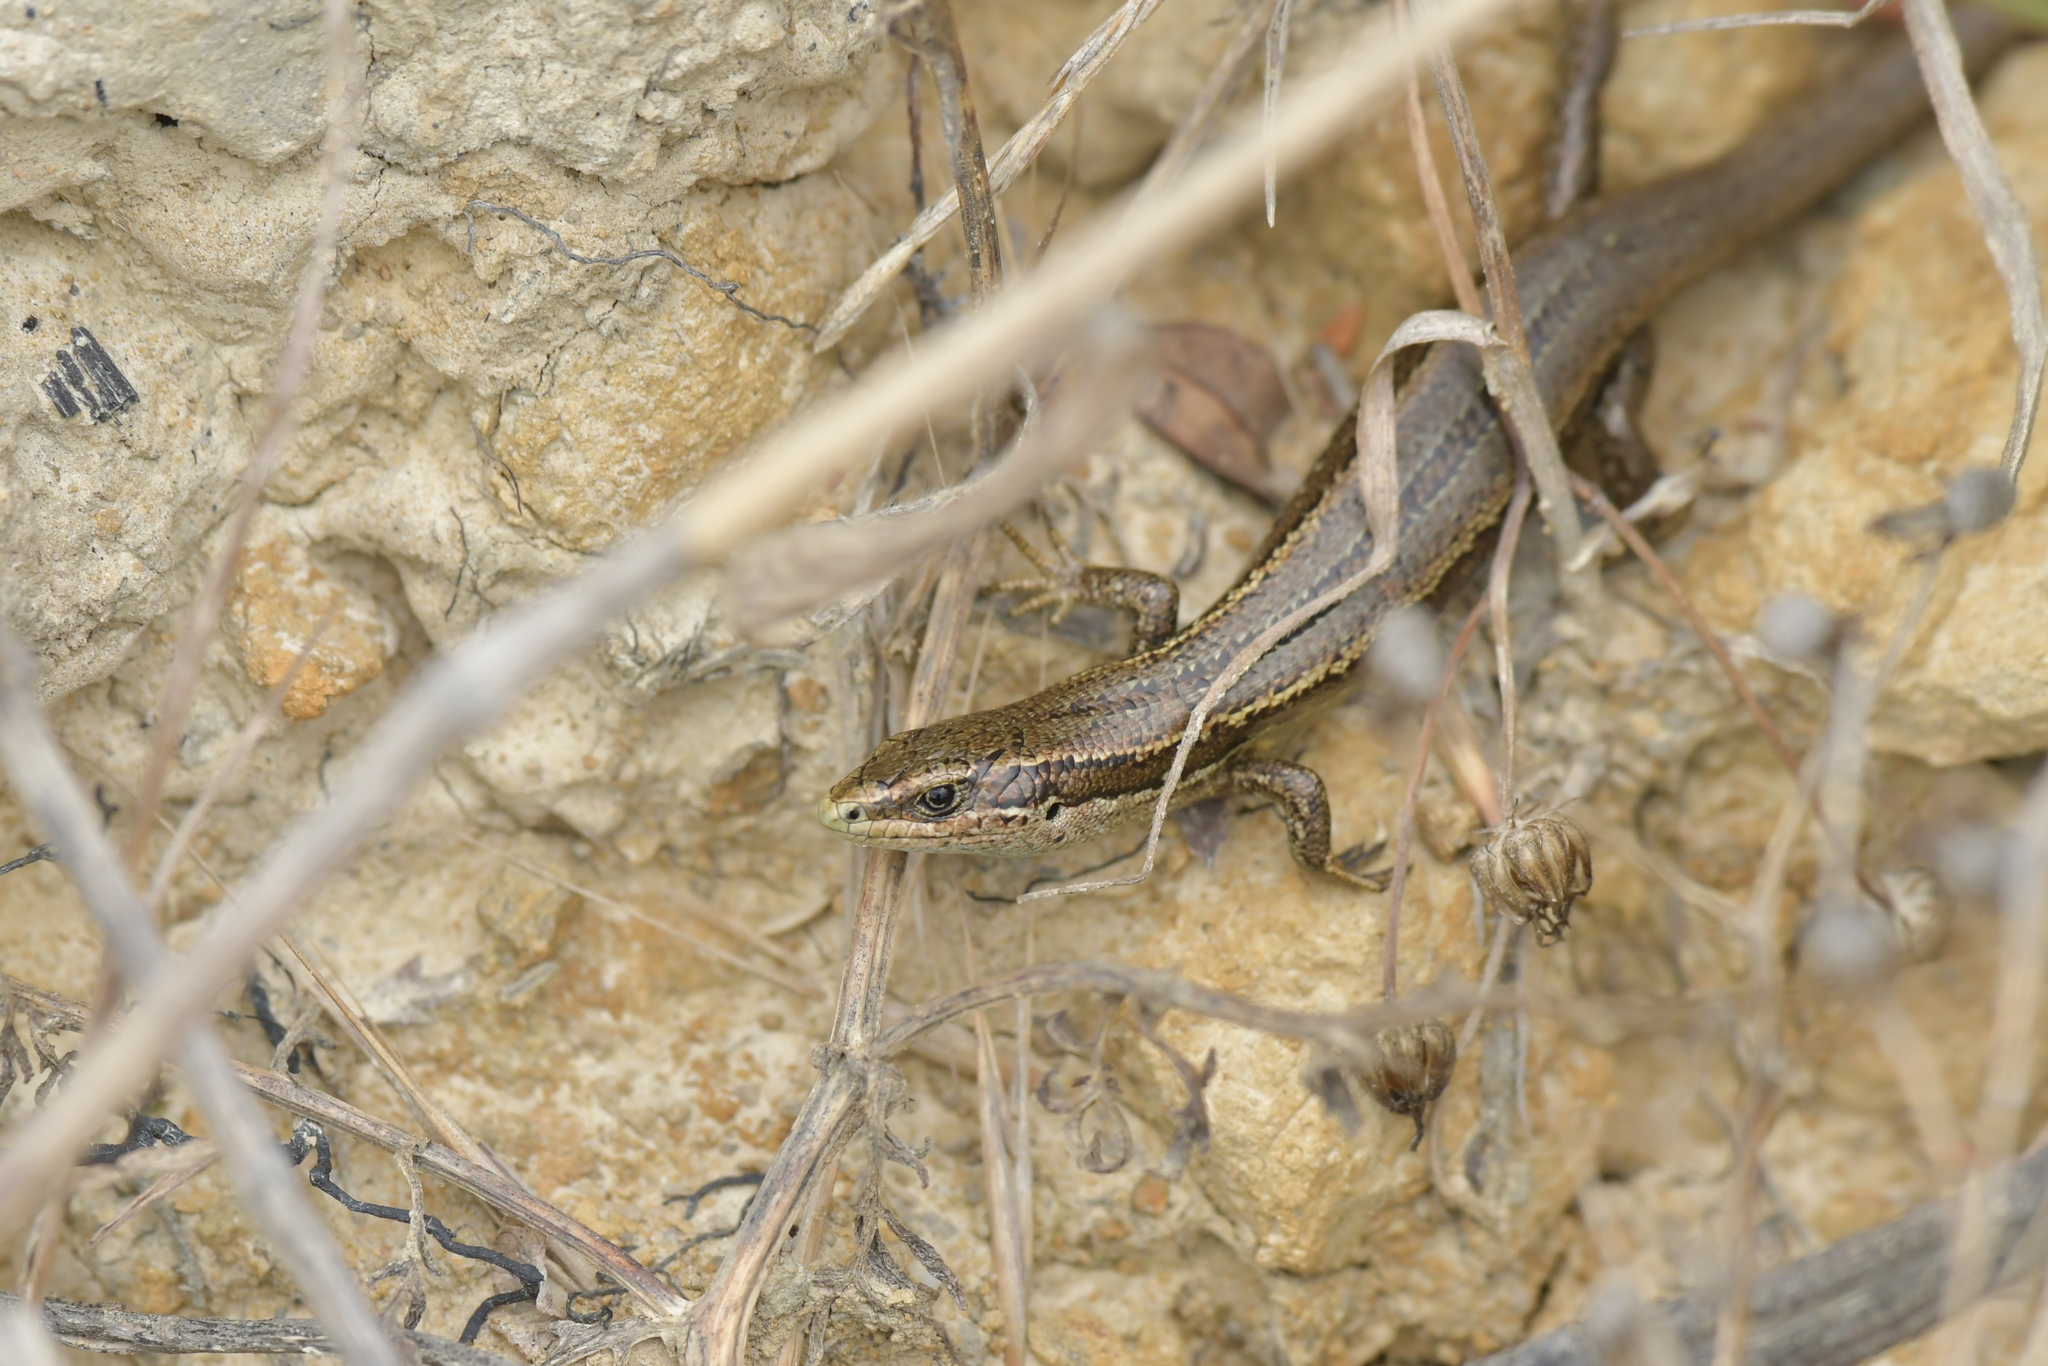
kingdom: Animalia
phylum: Chordata
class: Squamata
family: Scincidae
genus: Oligosoma
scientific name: Oligosoma polychroma
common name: Common new zealand skink
